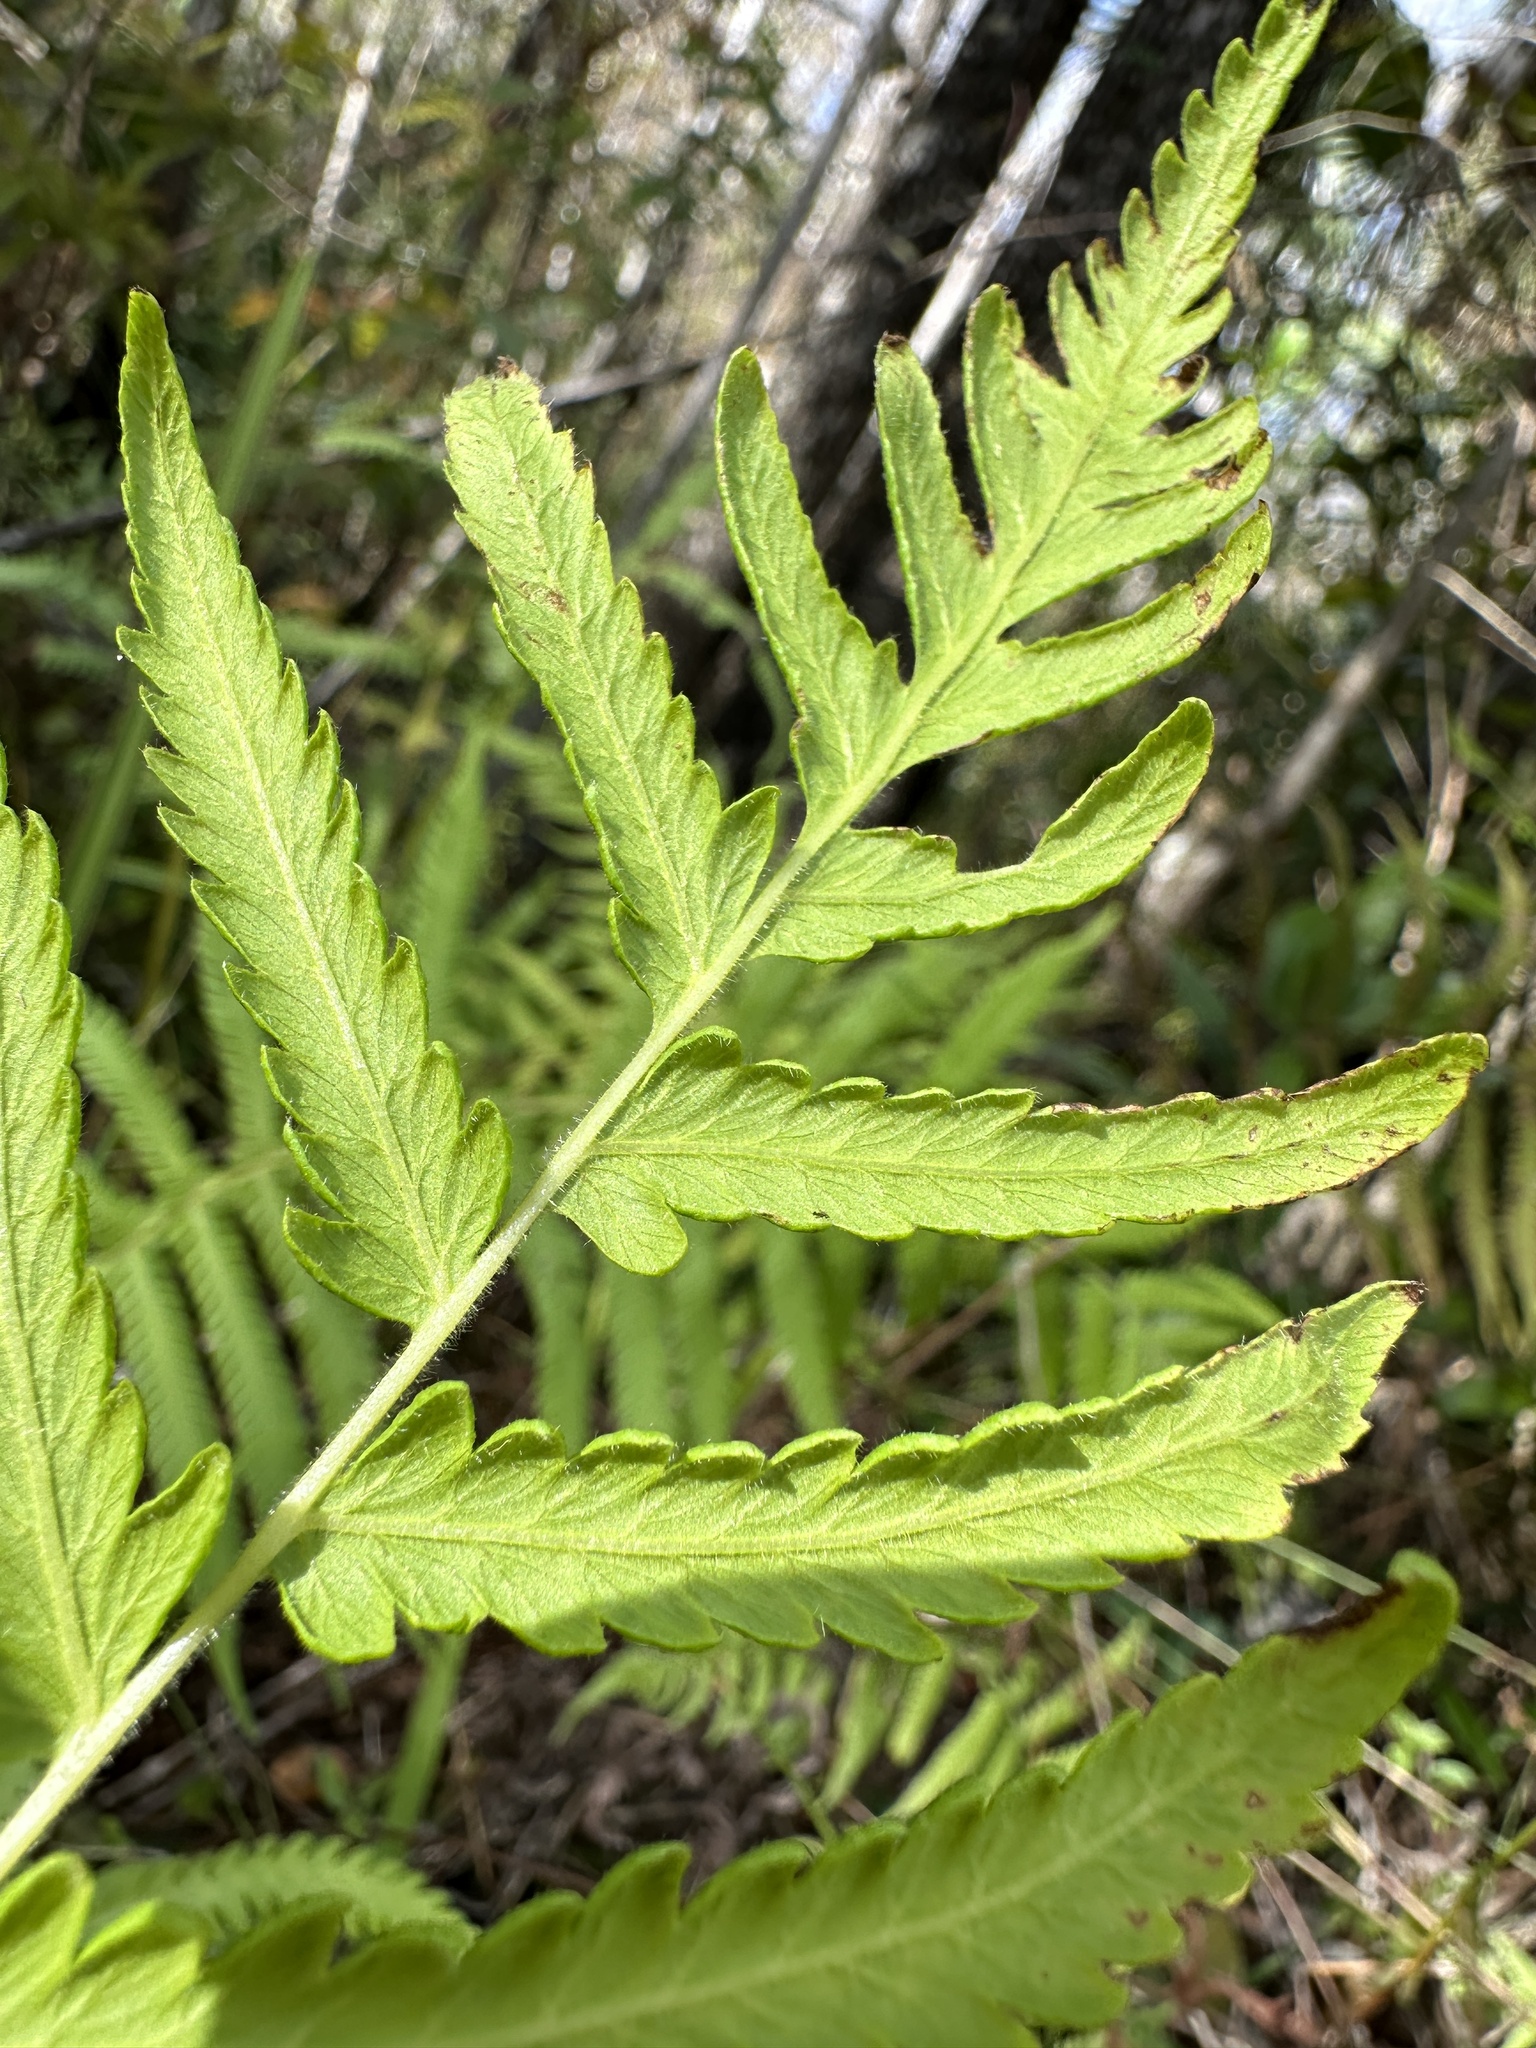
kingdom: Plantae
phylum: Tracheophyta
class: Polypodiopsida
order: Polypodiales
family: Thelypteridaceae
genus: Pelazoneuron
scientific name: Pelazoneuron kunthii
